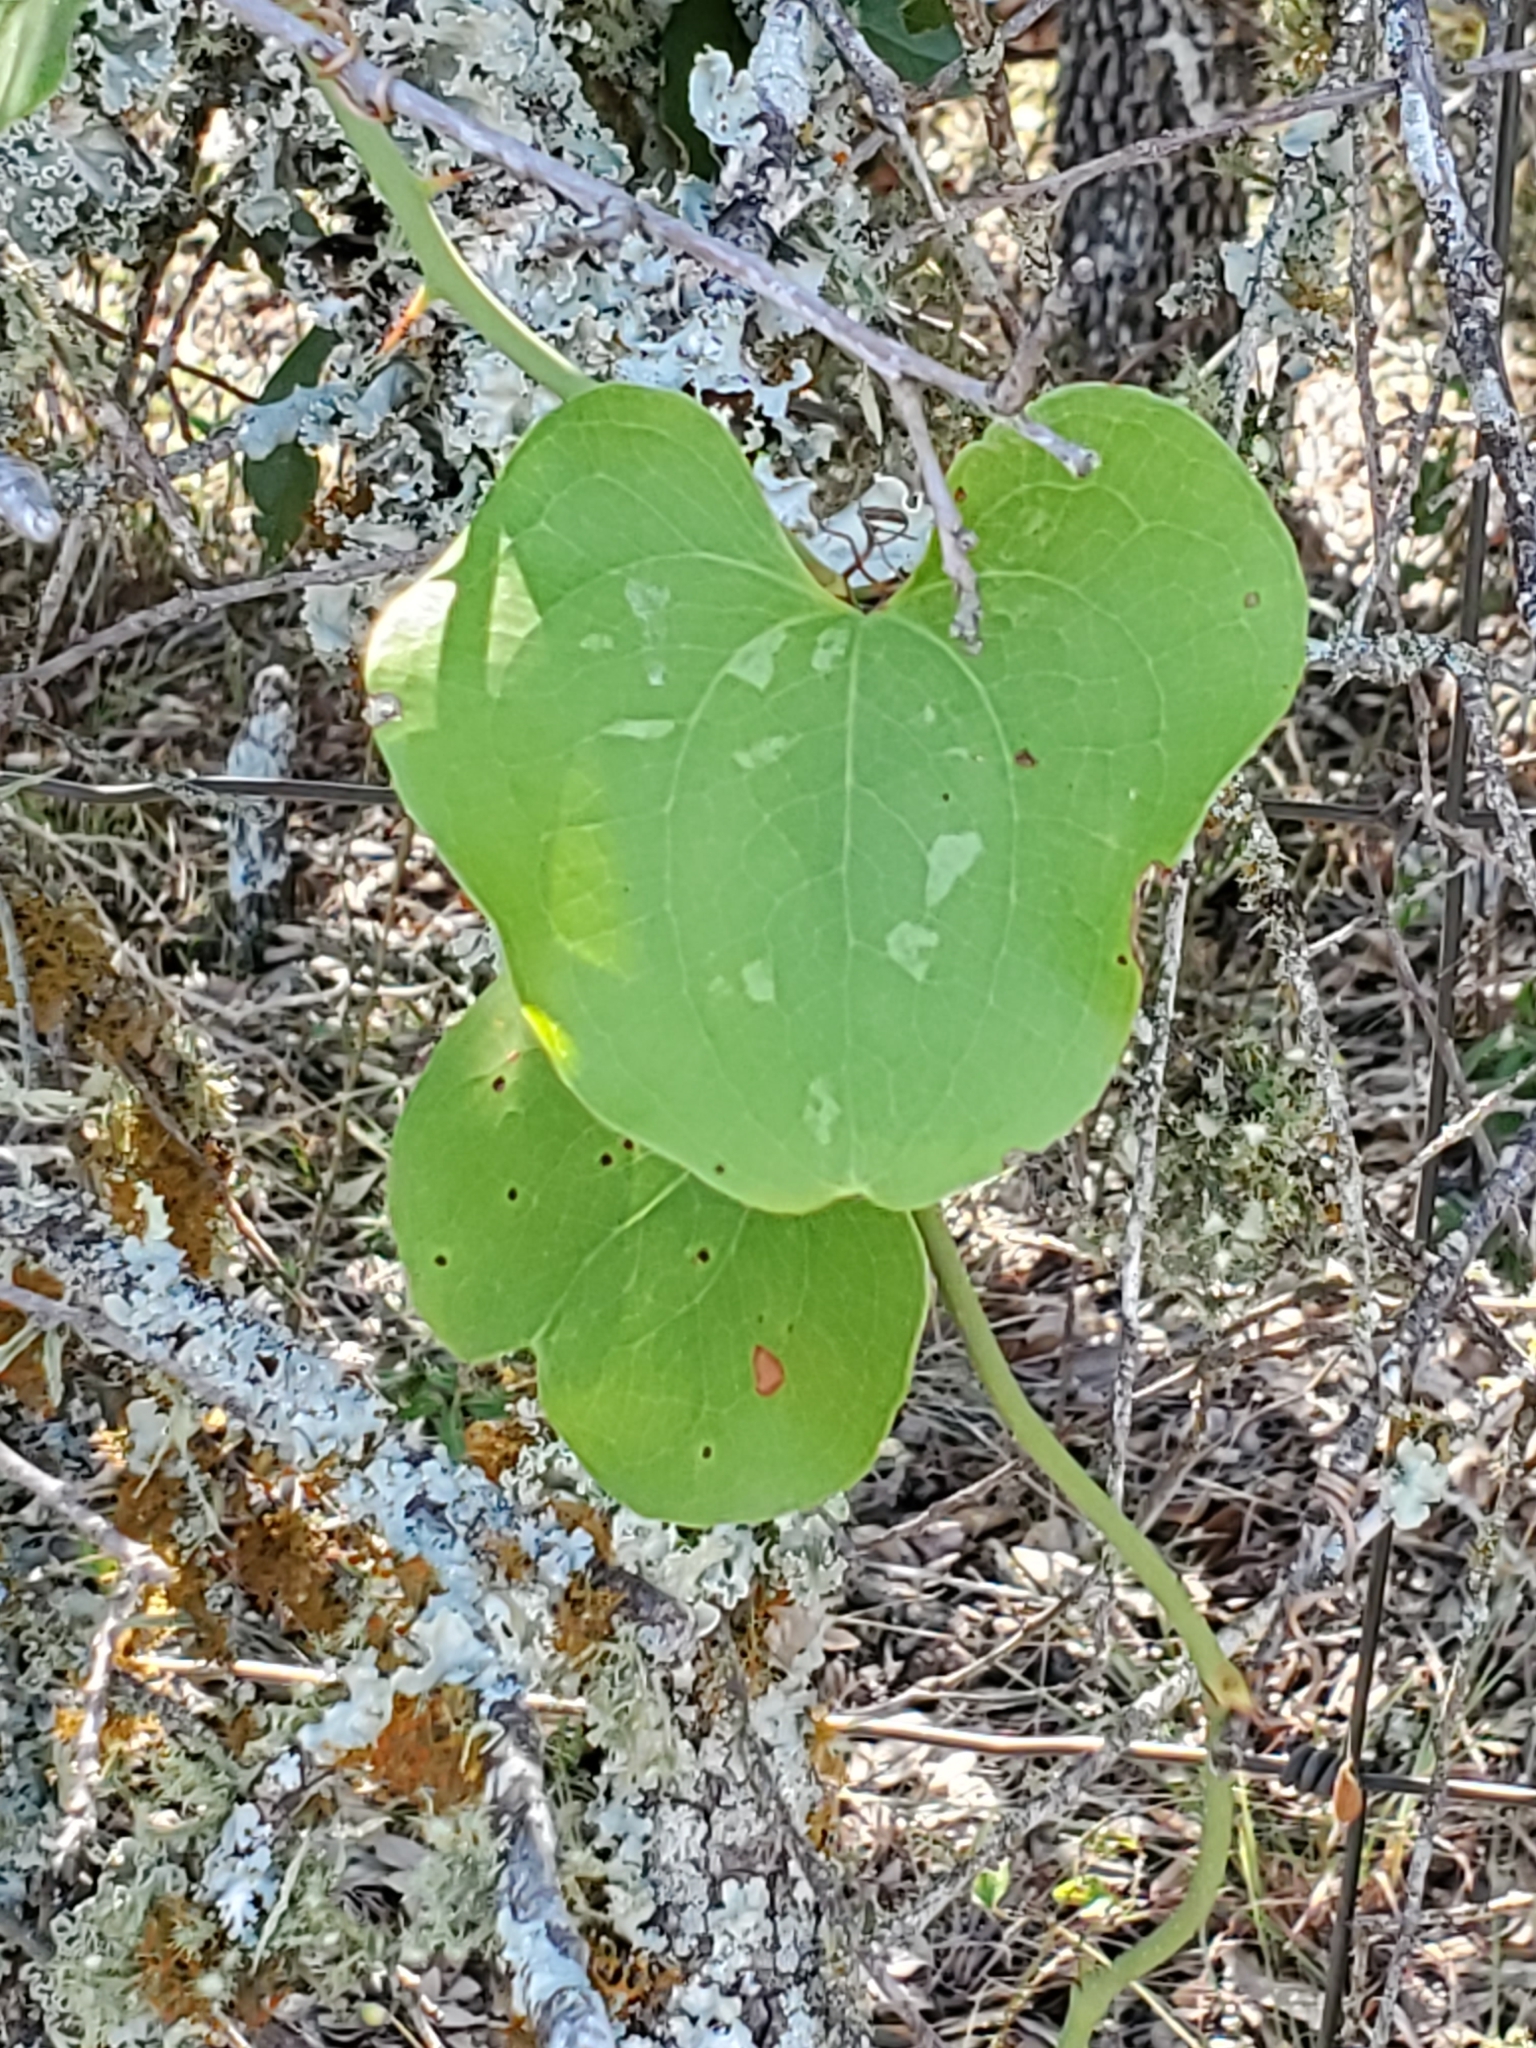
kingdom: Plantae
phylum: Tracheophyta
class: Liliopsida
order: Liliales
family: Smilacaceae
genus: Smilax
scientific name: Smilax bona-nox
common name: Catbrier
